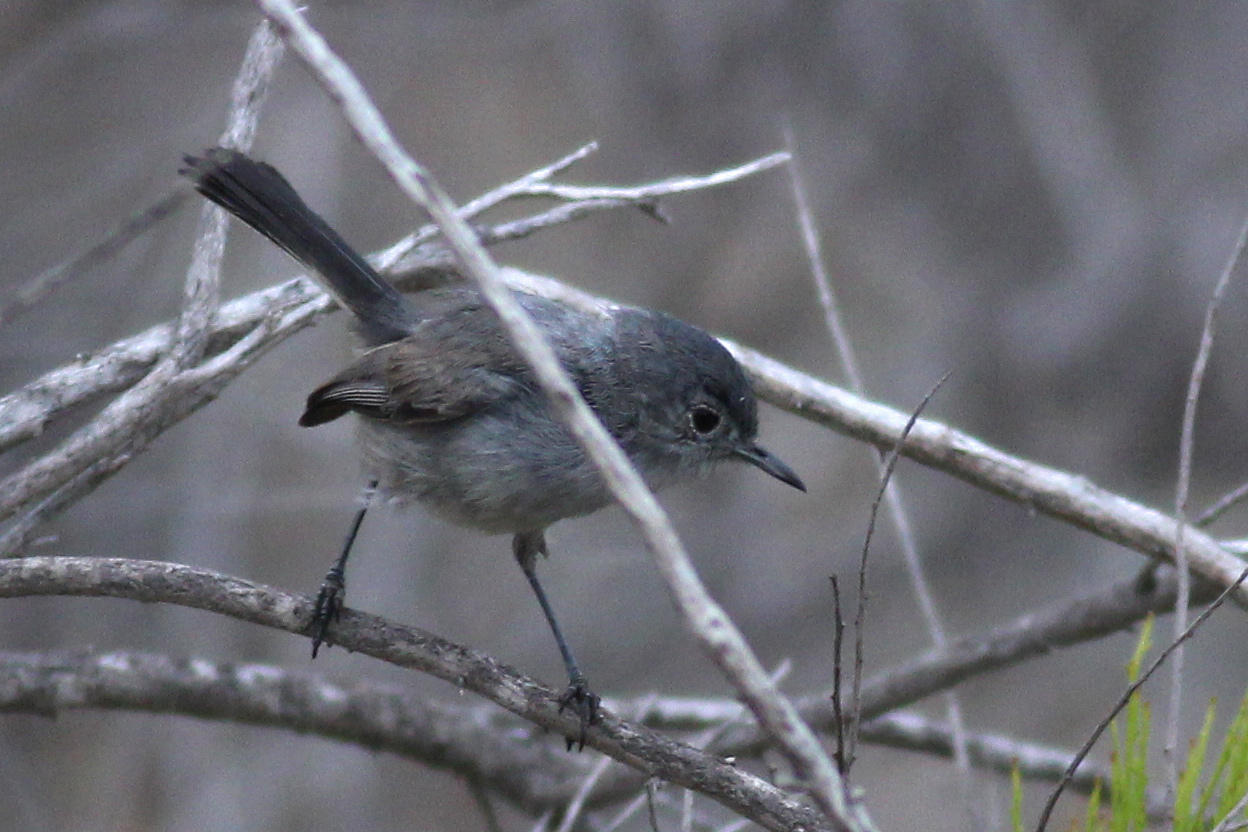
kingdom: Animalia
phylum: Chordata
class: Aves
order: Passeriformes
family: Polioptilidae
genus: Polioptila
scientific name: Polioptila californica
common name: California gnatcatcher
